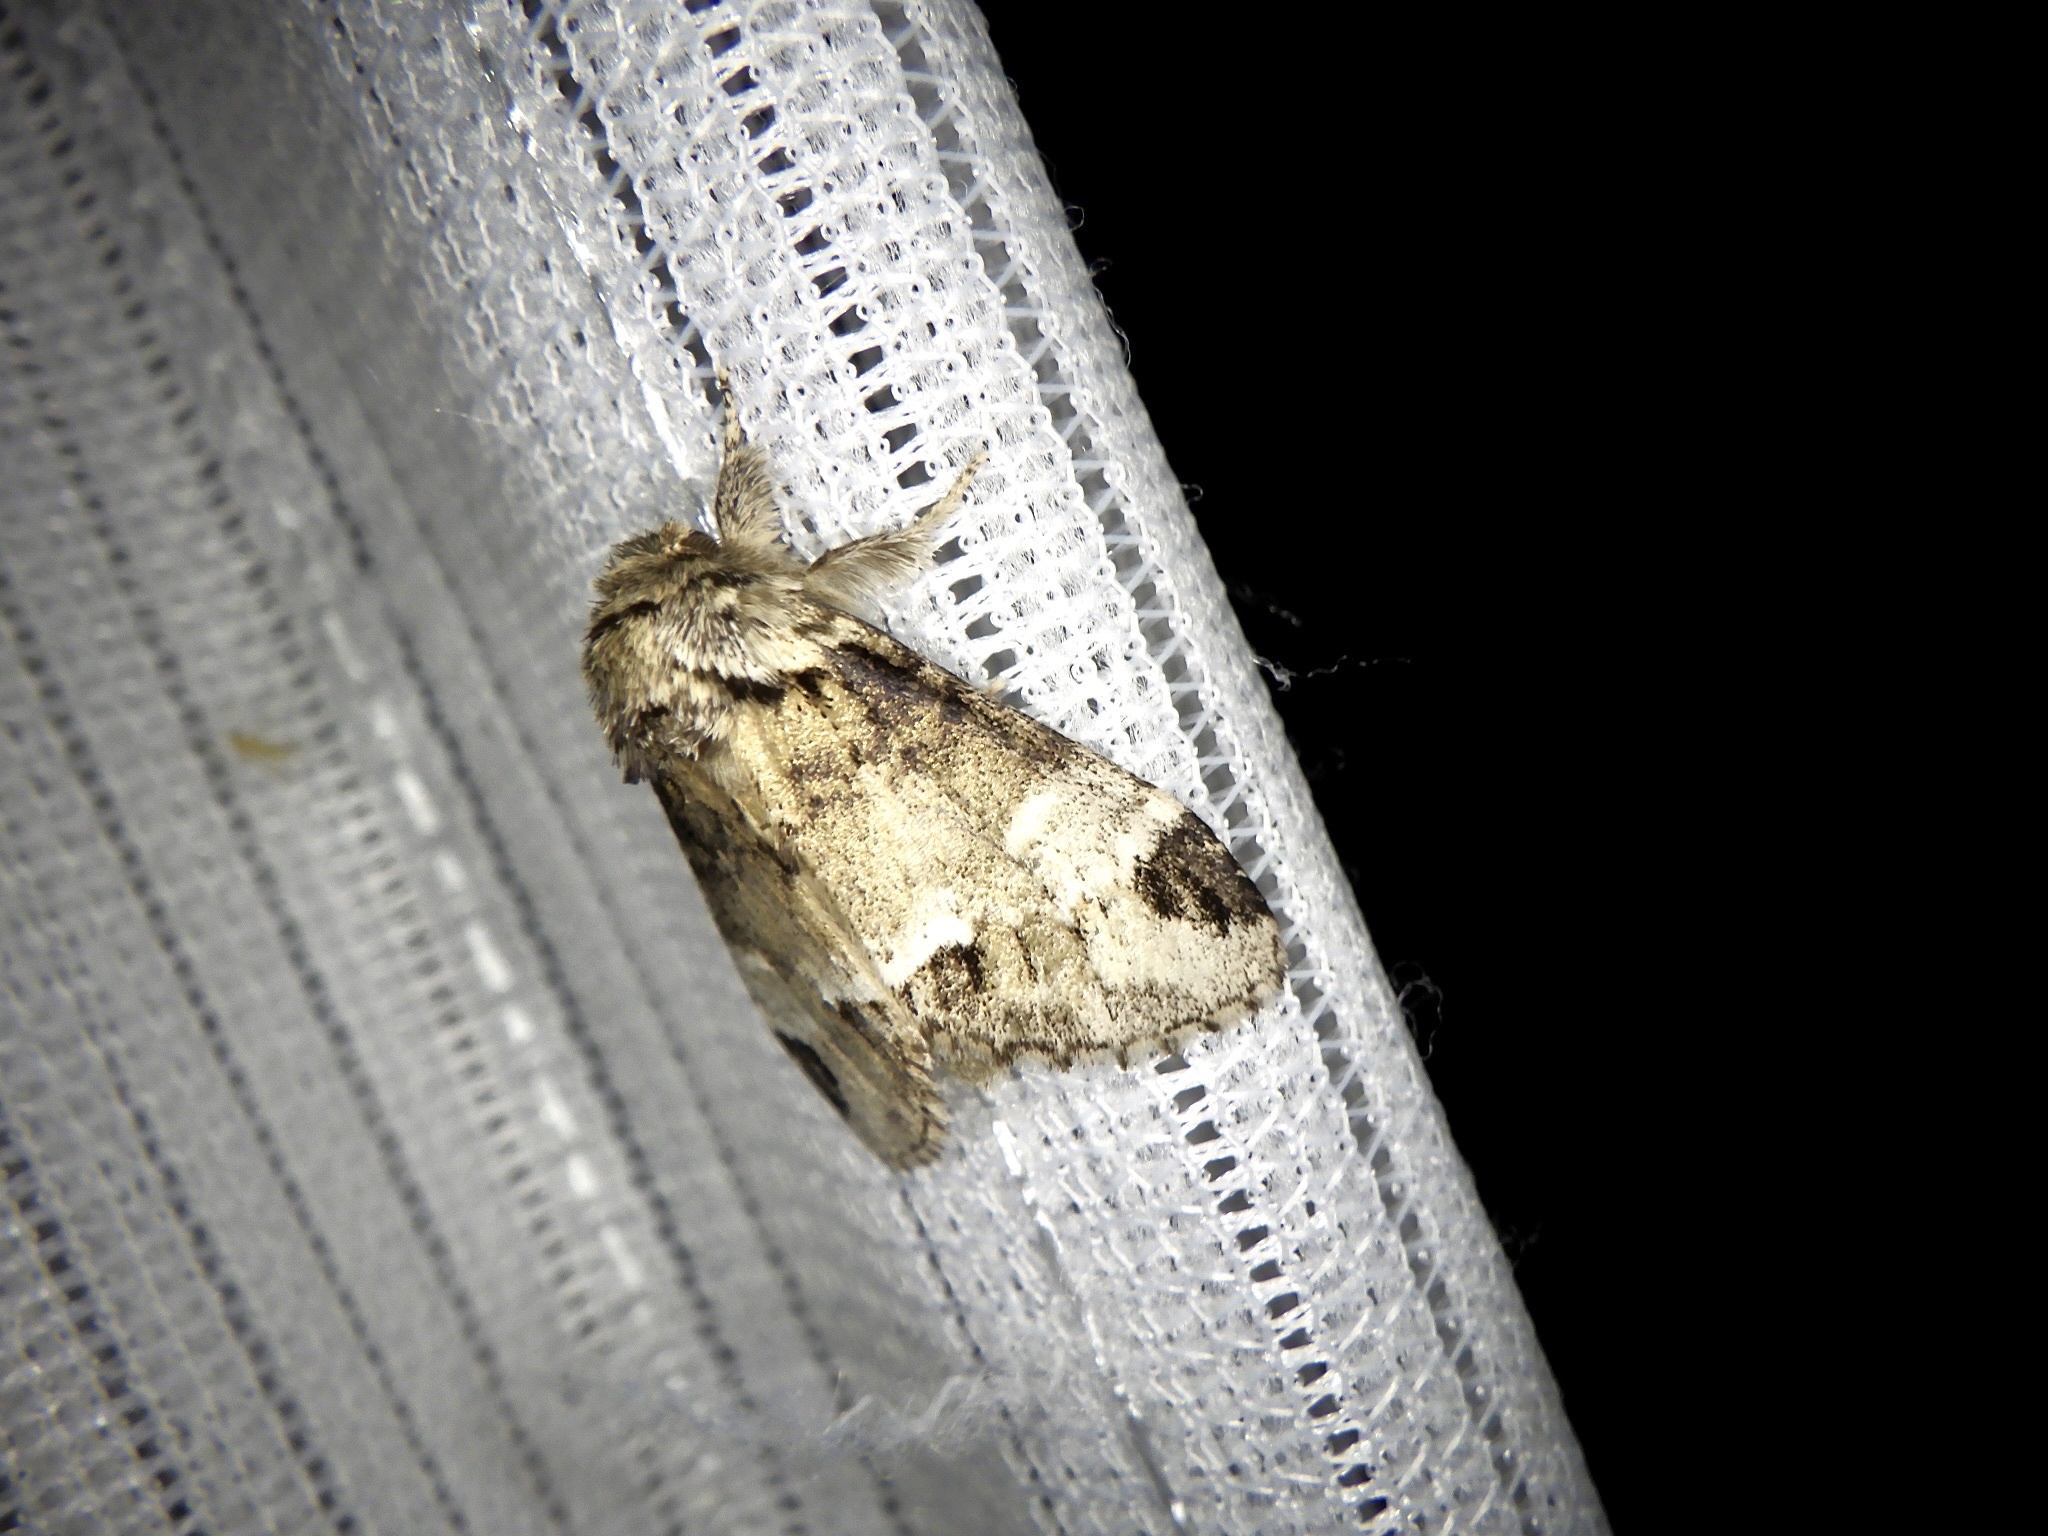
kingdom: Animalia
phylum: Arthropoda
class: Insecta
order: Lepidoptera
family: Notodontidae
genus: Drymonia
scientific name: Drymonia japonica
